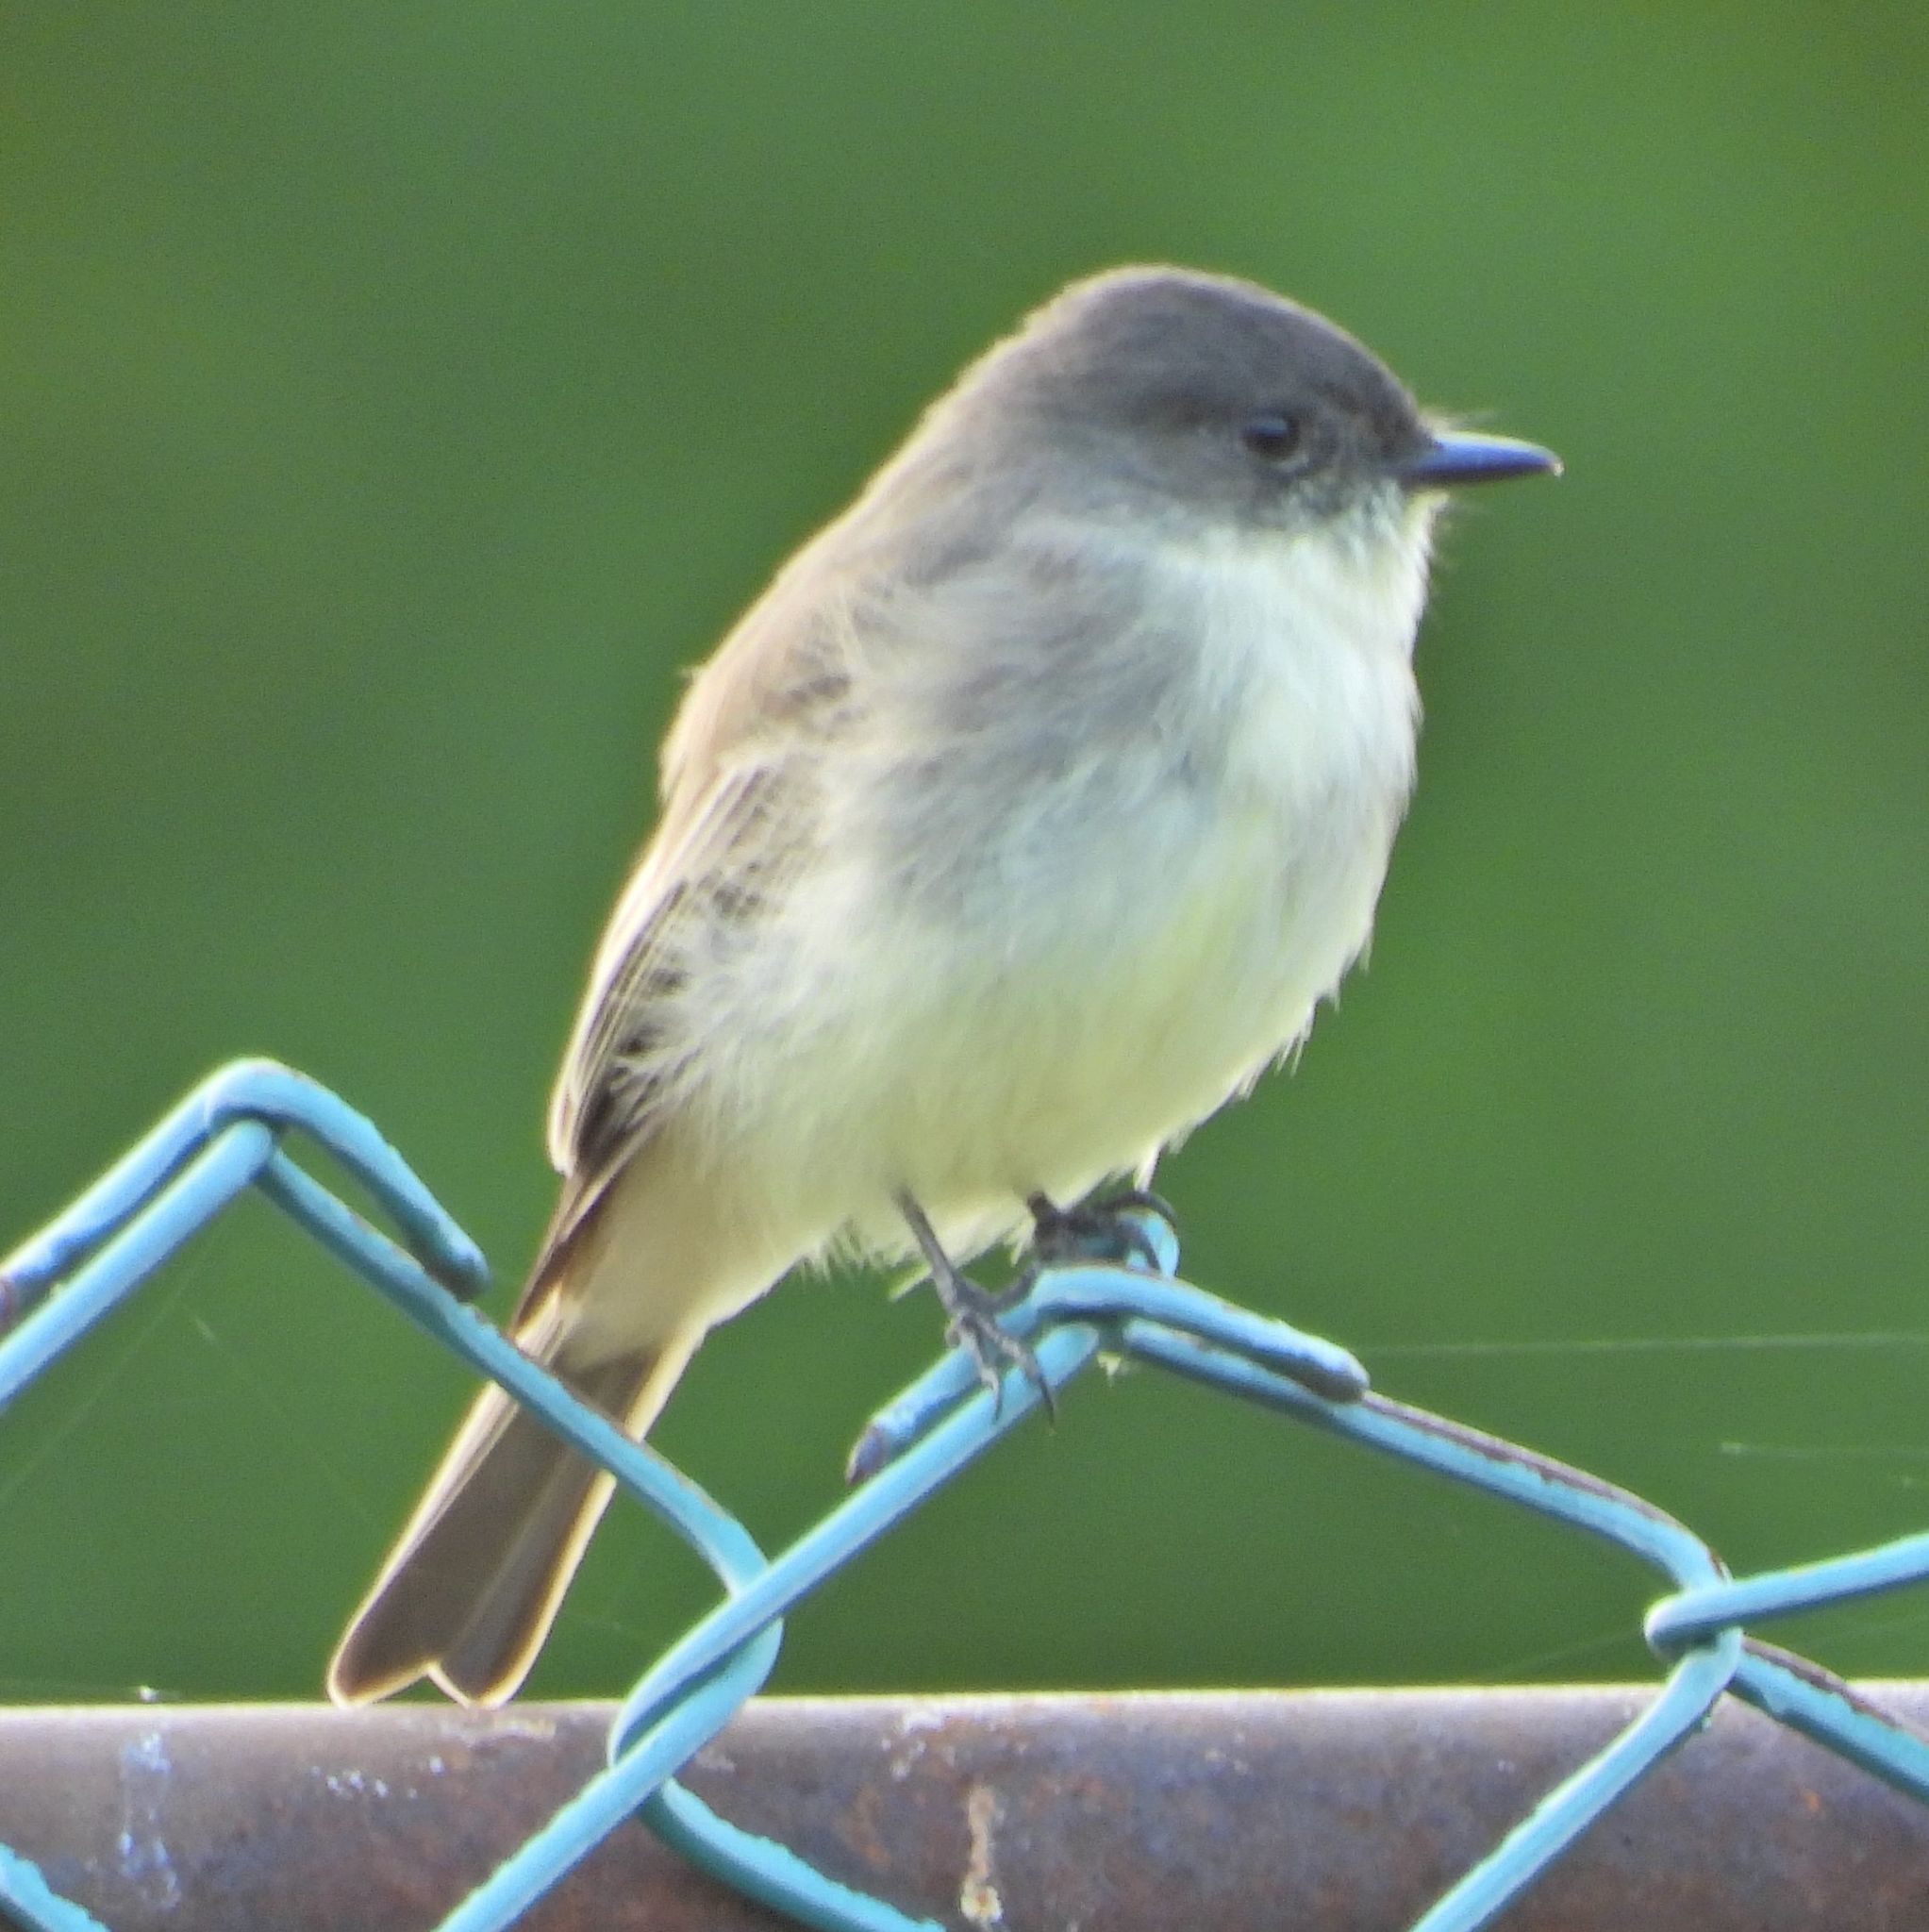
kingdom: Animalia
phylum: Chordata
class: Aves
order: Passeriformes
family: Tyrannidae
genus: Sayornis
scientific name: Sayornis phoebe
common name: Eastern phoebe
